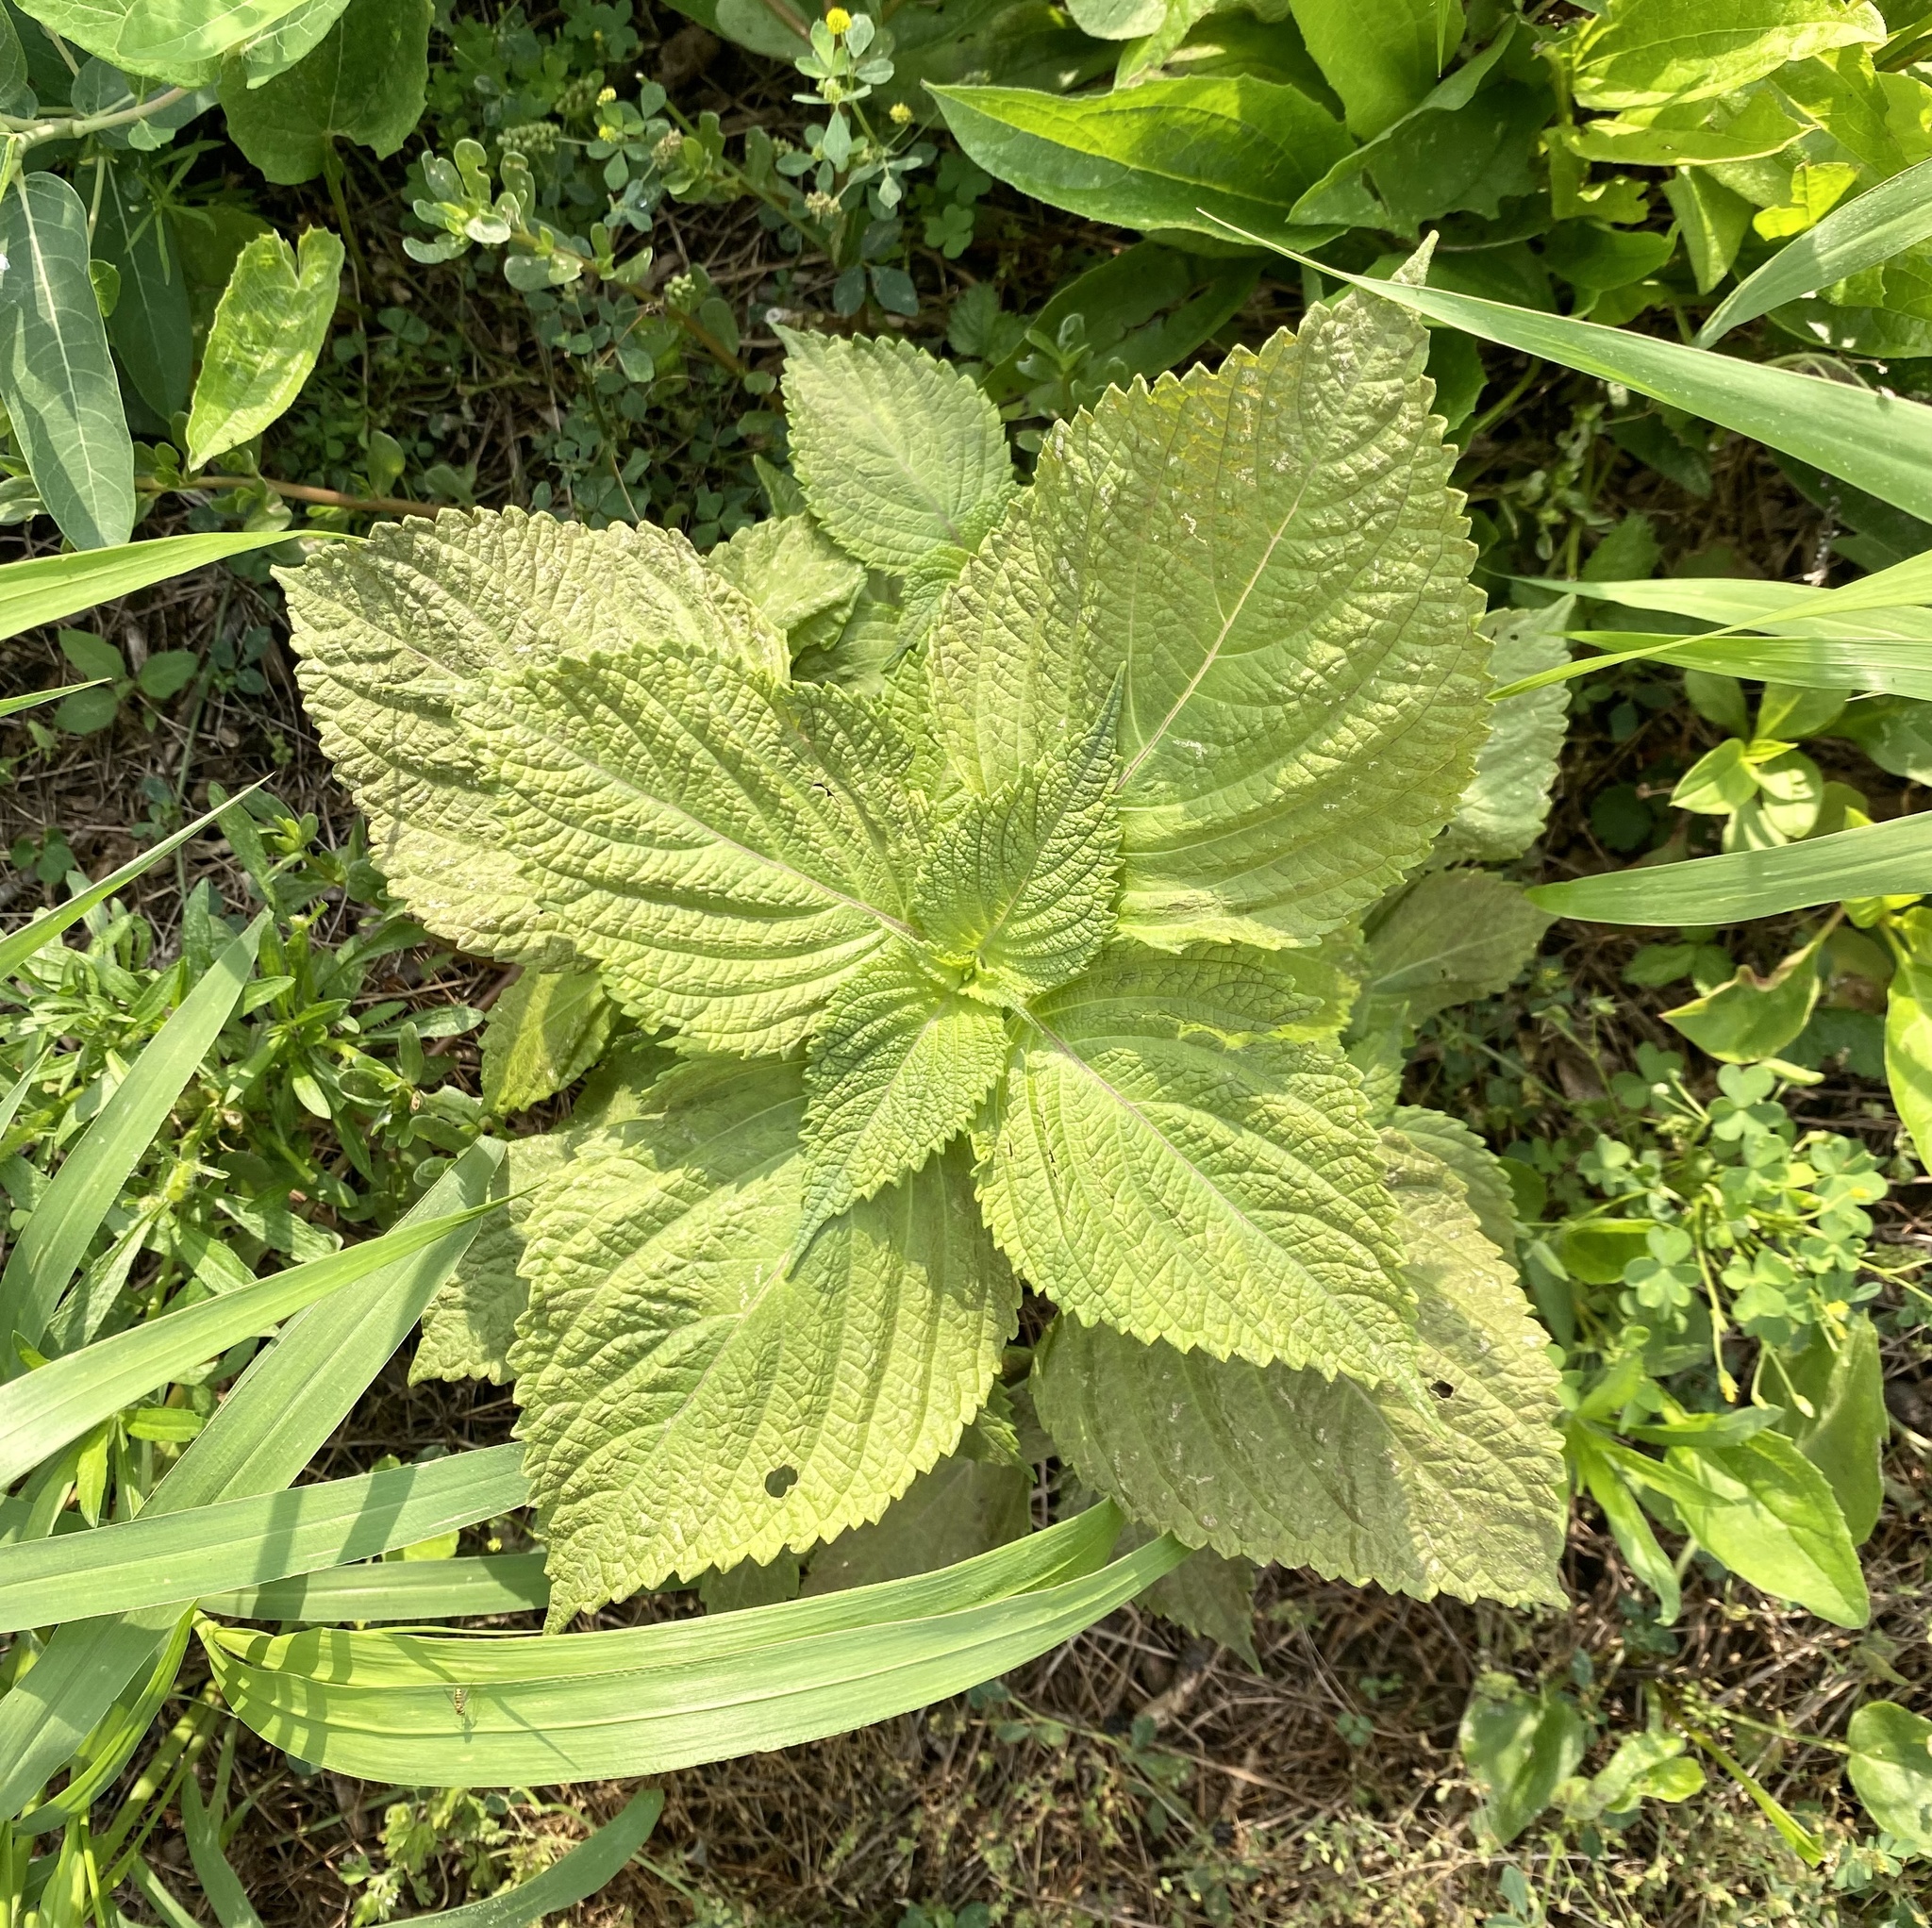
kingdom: Plantae
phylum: Tracheophyta
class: Magnoliopsida
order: Lamiales
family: Lamiaceae
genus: Perilla
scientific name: Perilla frutescens
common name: Perilla
